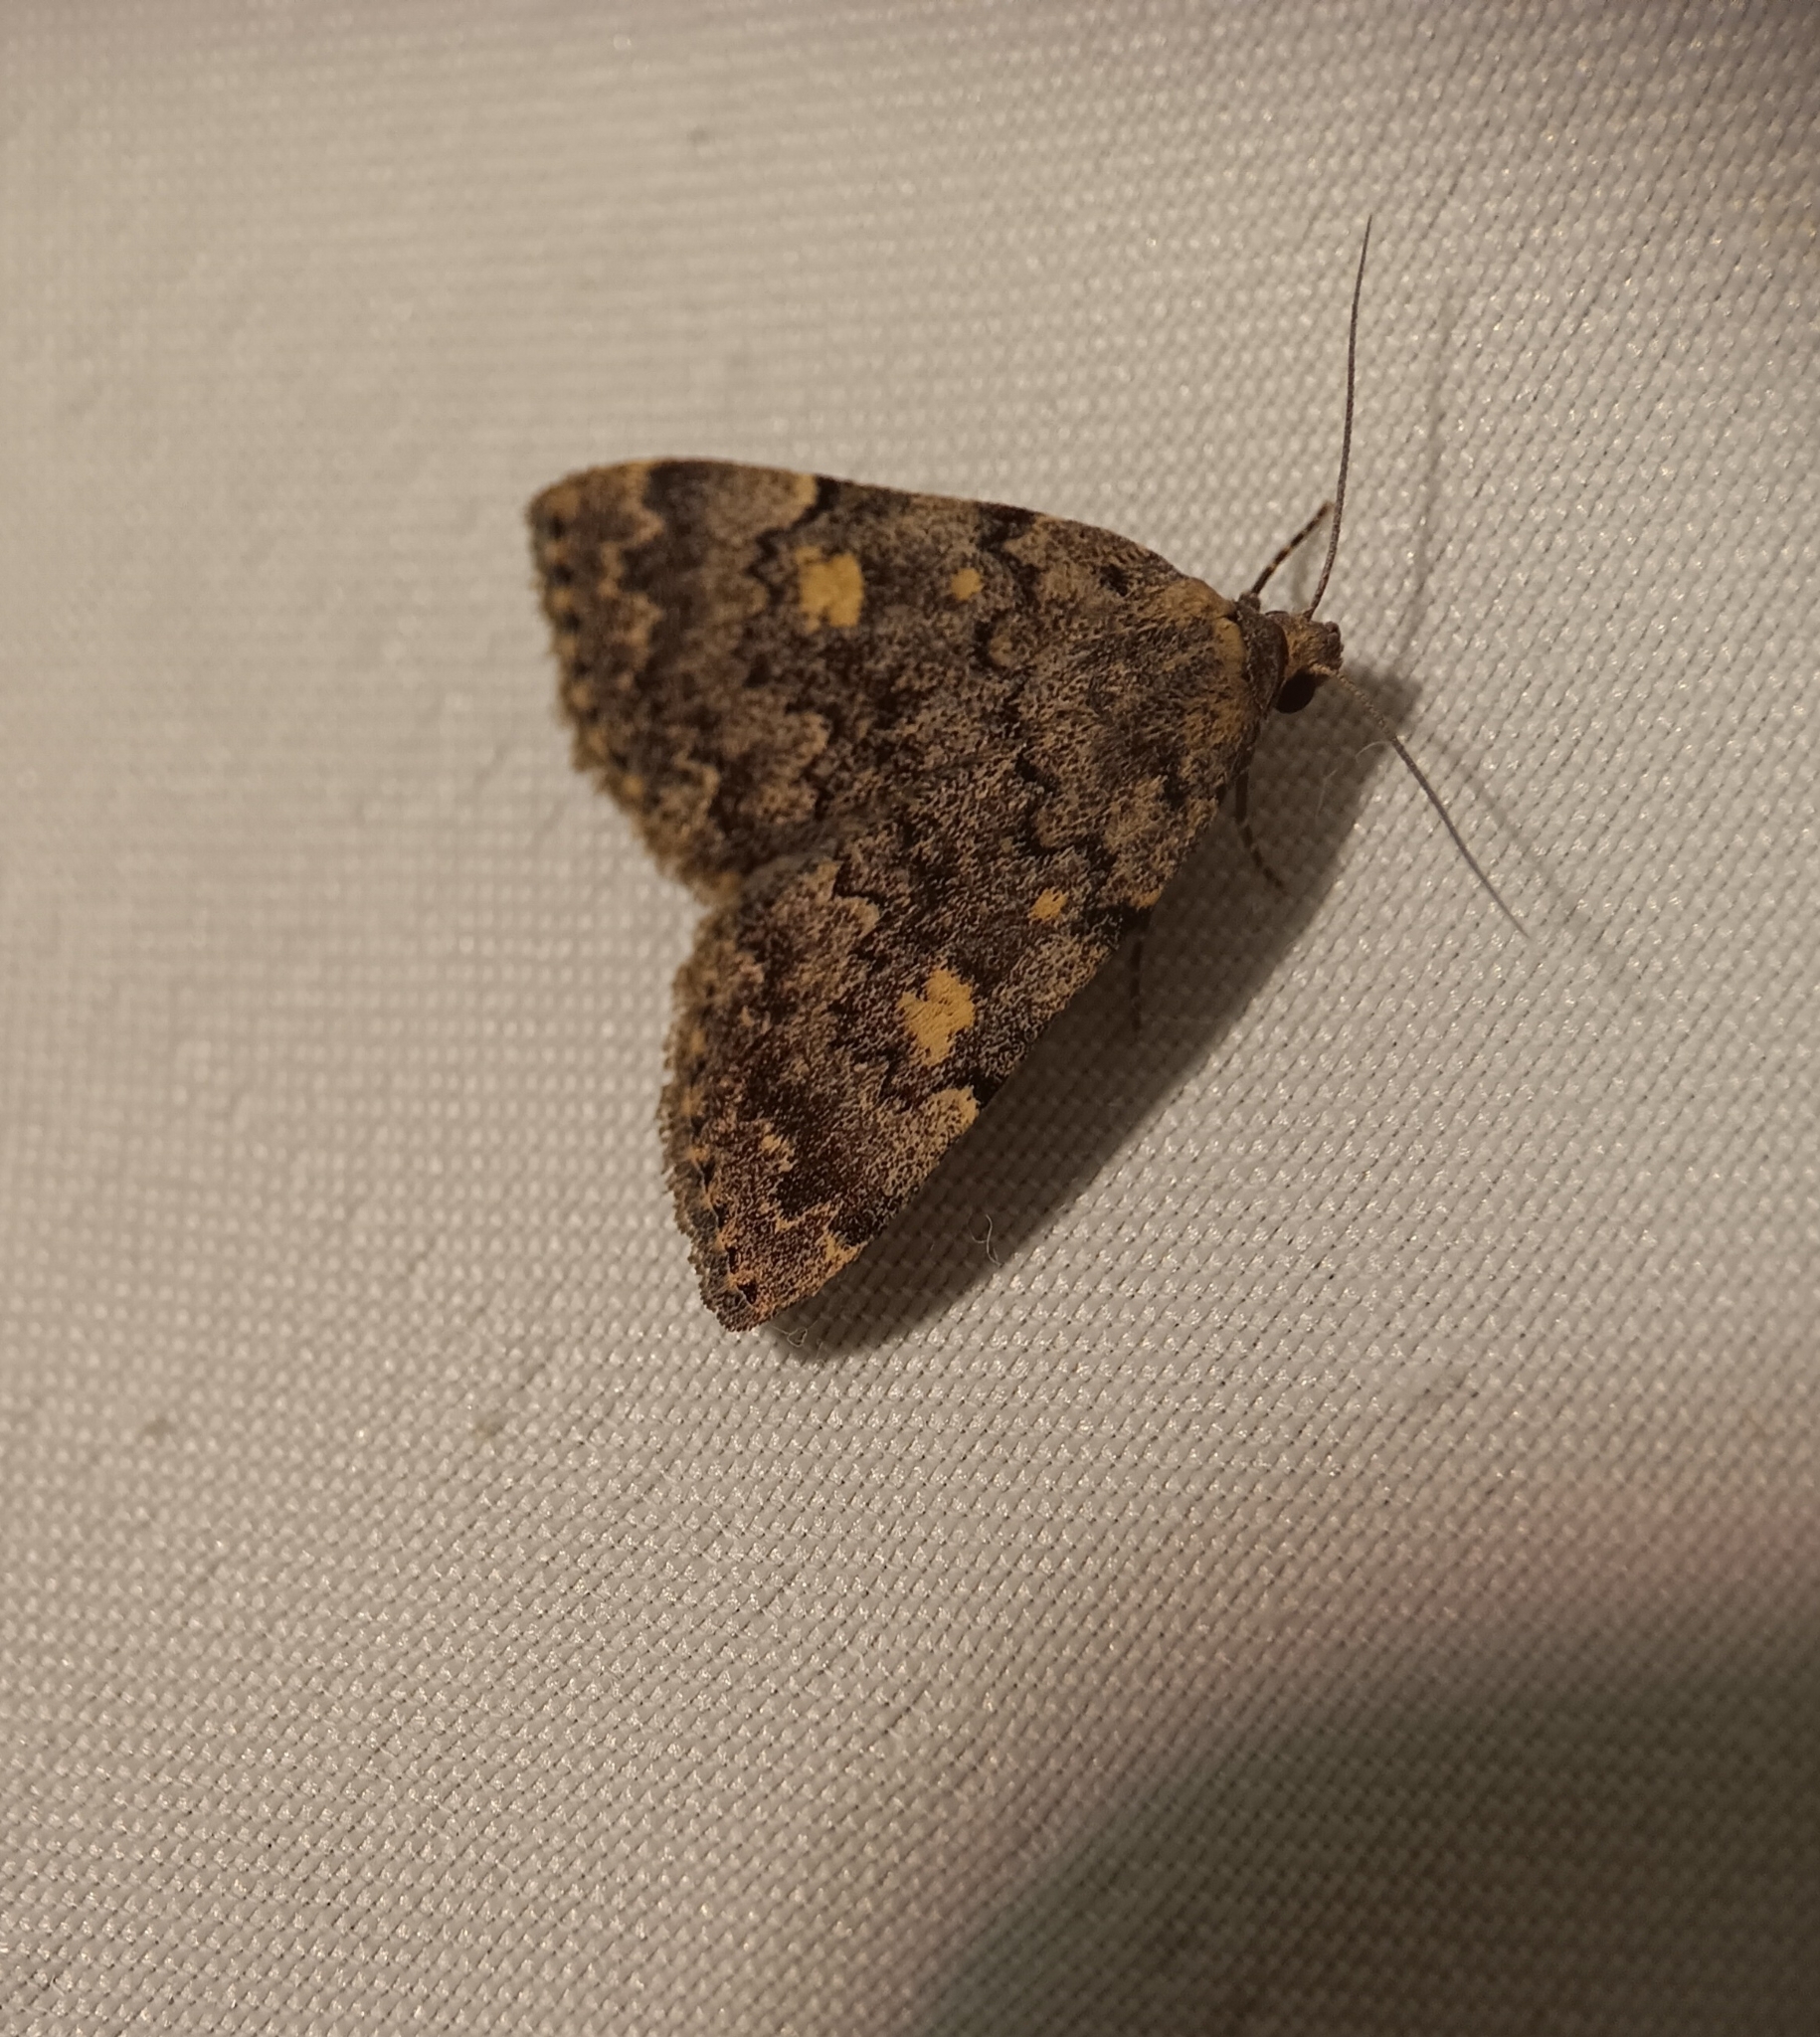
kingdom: Animalia
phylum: Arthropoda
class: Insecta
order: Lepidoptera
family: Erebidae
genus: Idia
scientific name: Idia aemula
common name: Common idia moth
